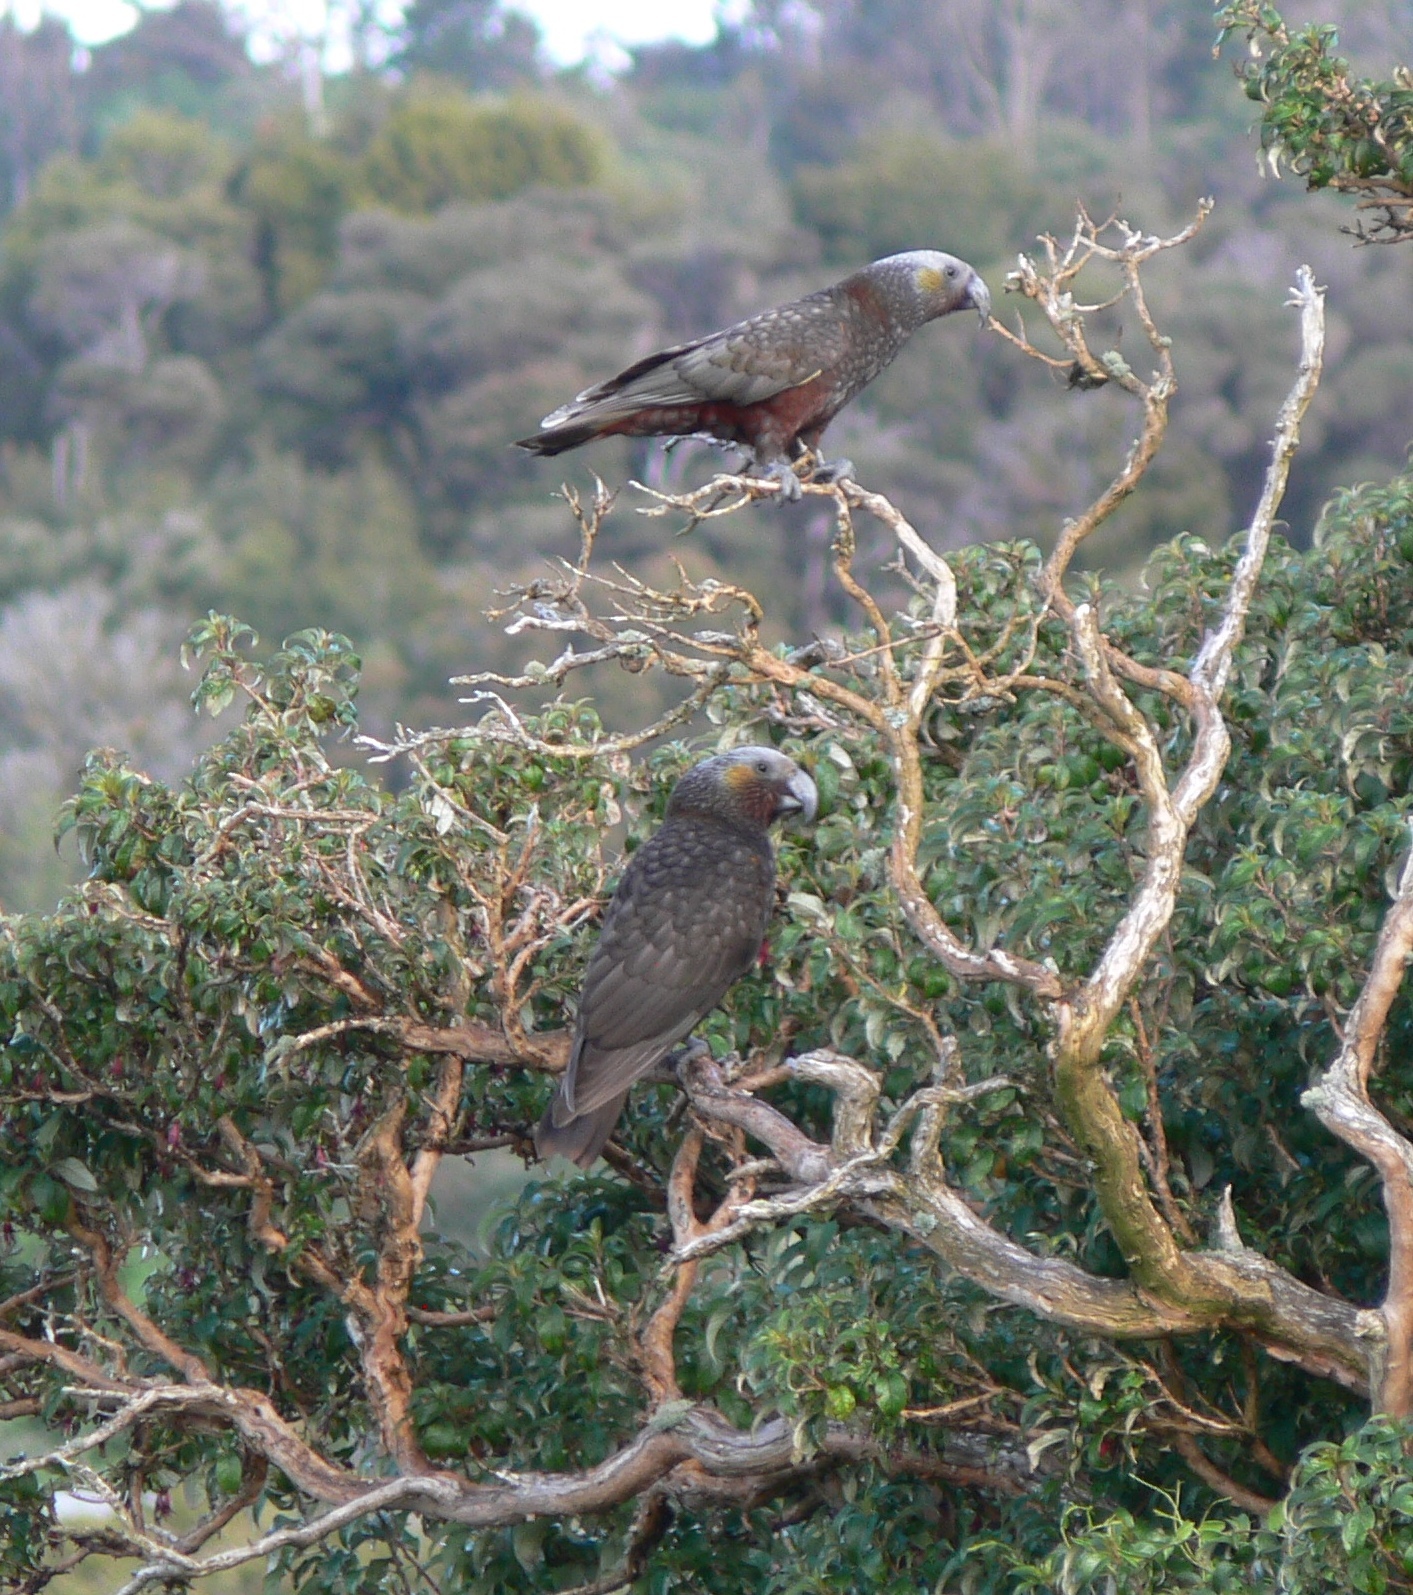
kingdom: Animalia
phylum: Chordata
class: Aves
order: Psittaciformes
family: Psittacidae
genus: Nestor
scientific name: Nestor meridionalis
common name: New zealand kaka
